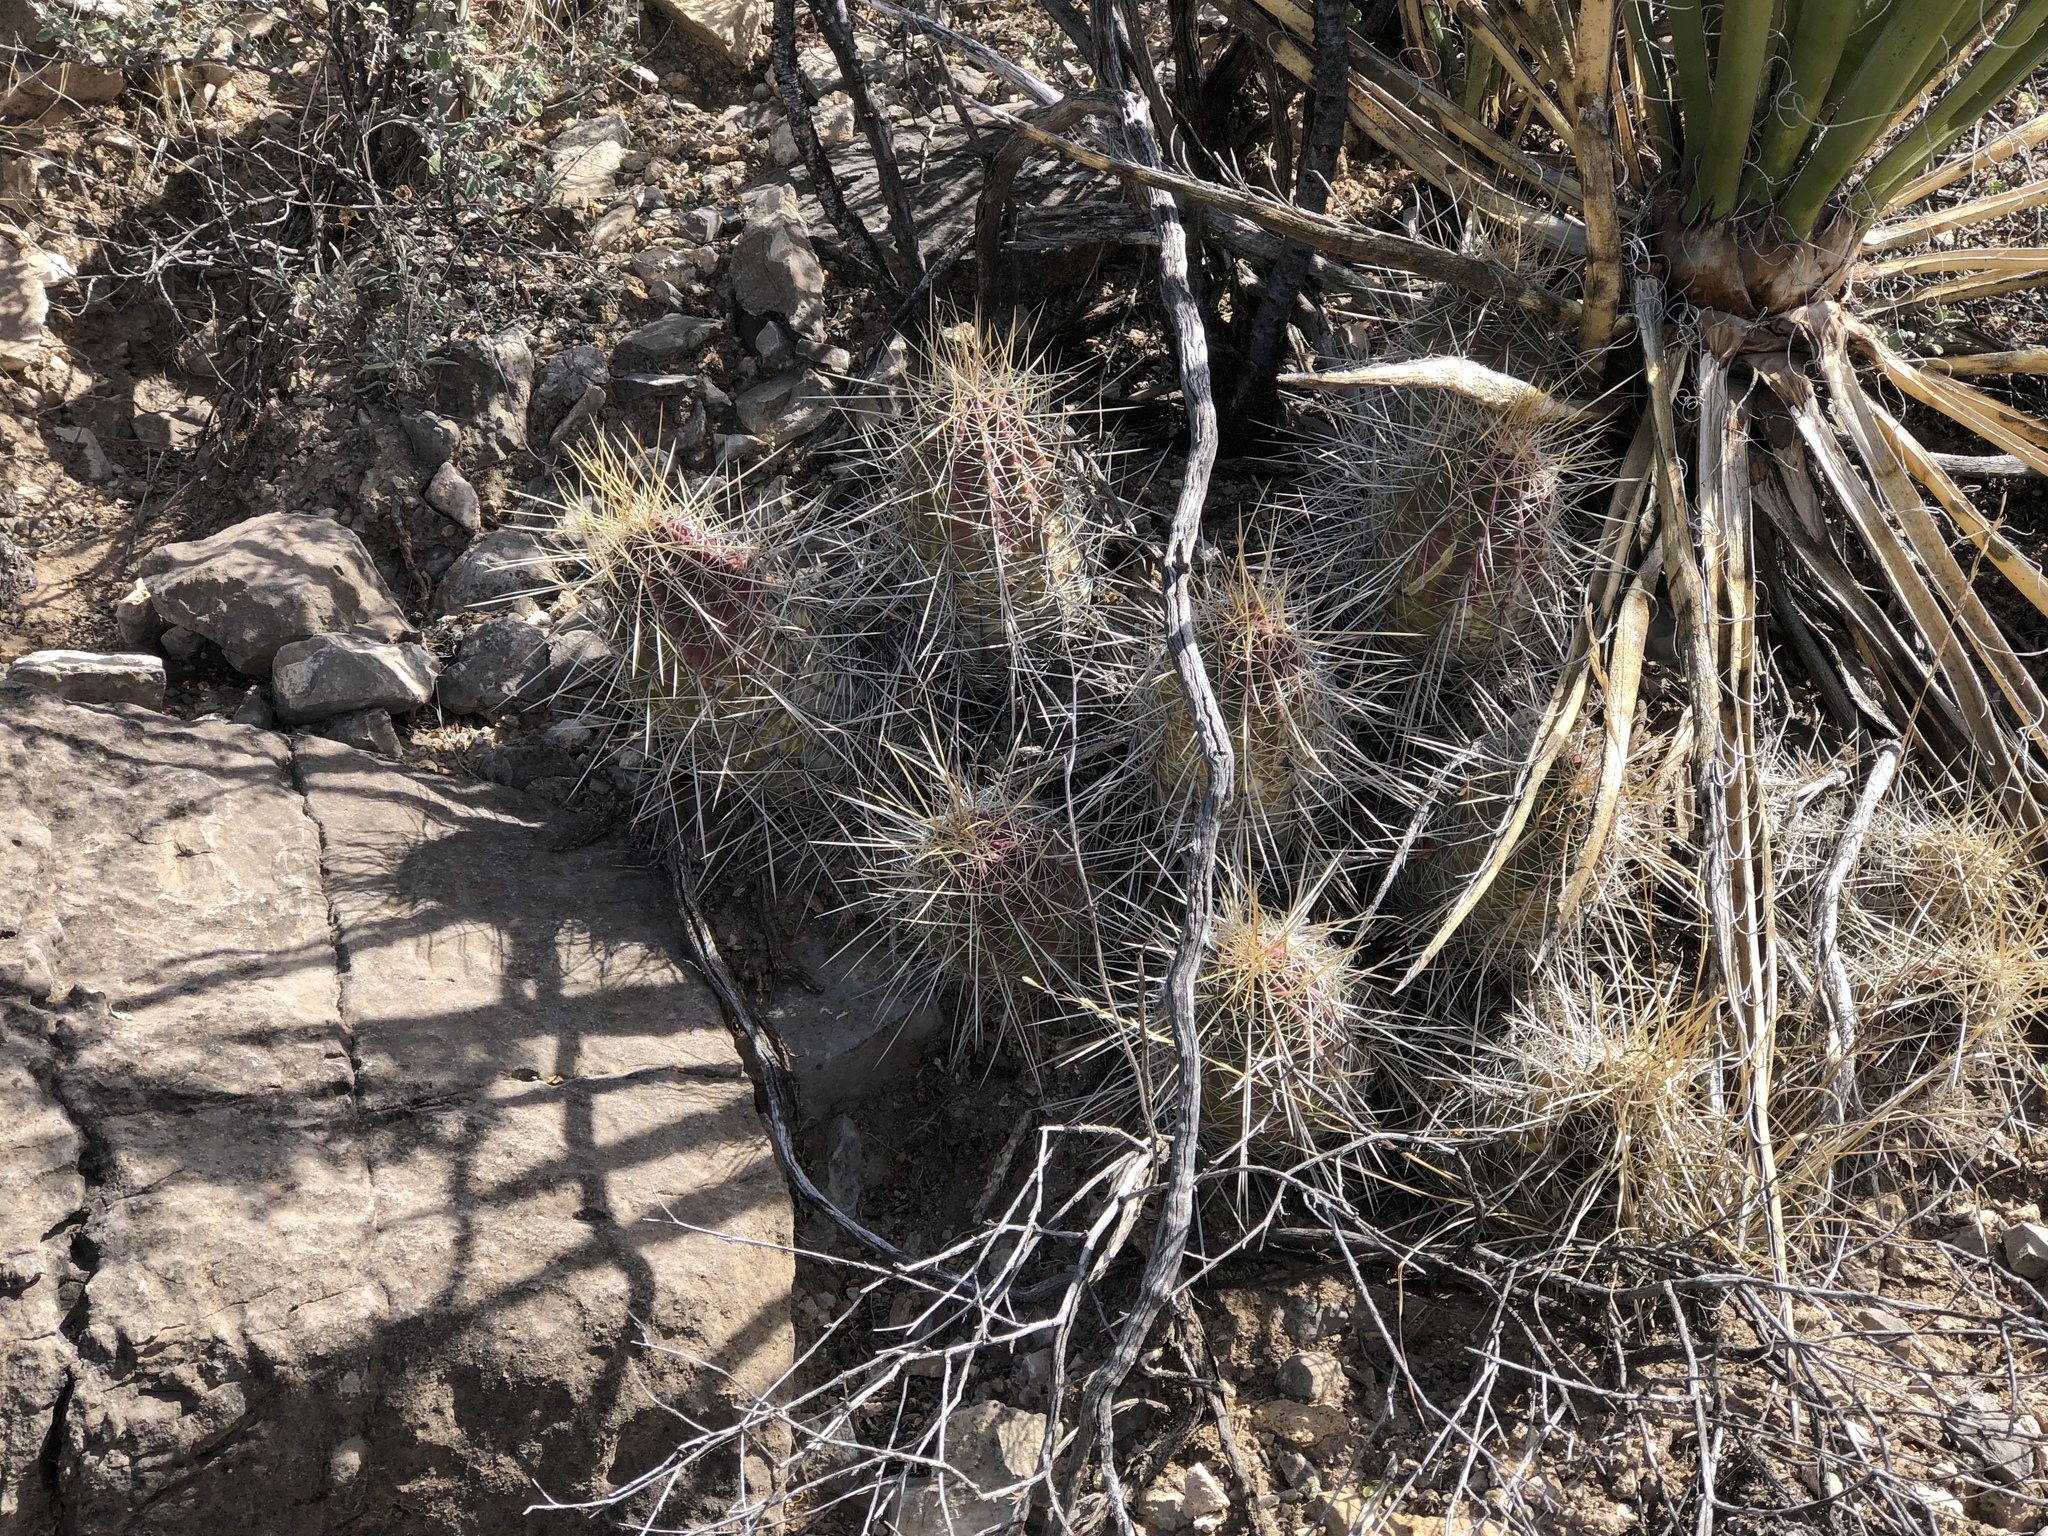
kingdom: Plantae
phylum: Tracheophyta
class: Magnoliopsida
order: Caryophyllales
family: Cactaceae
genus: Echinocereus
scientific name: Echinocereus stramineus
